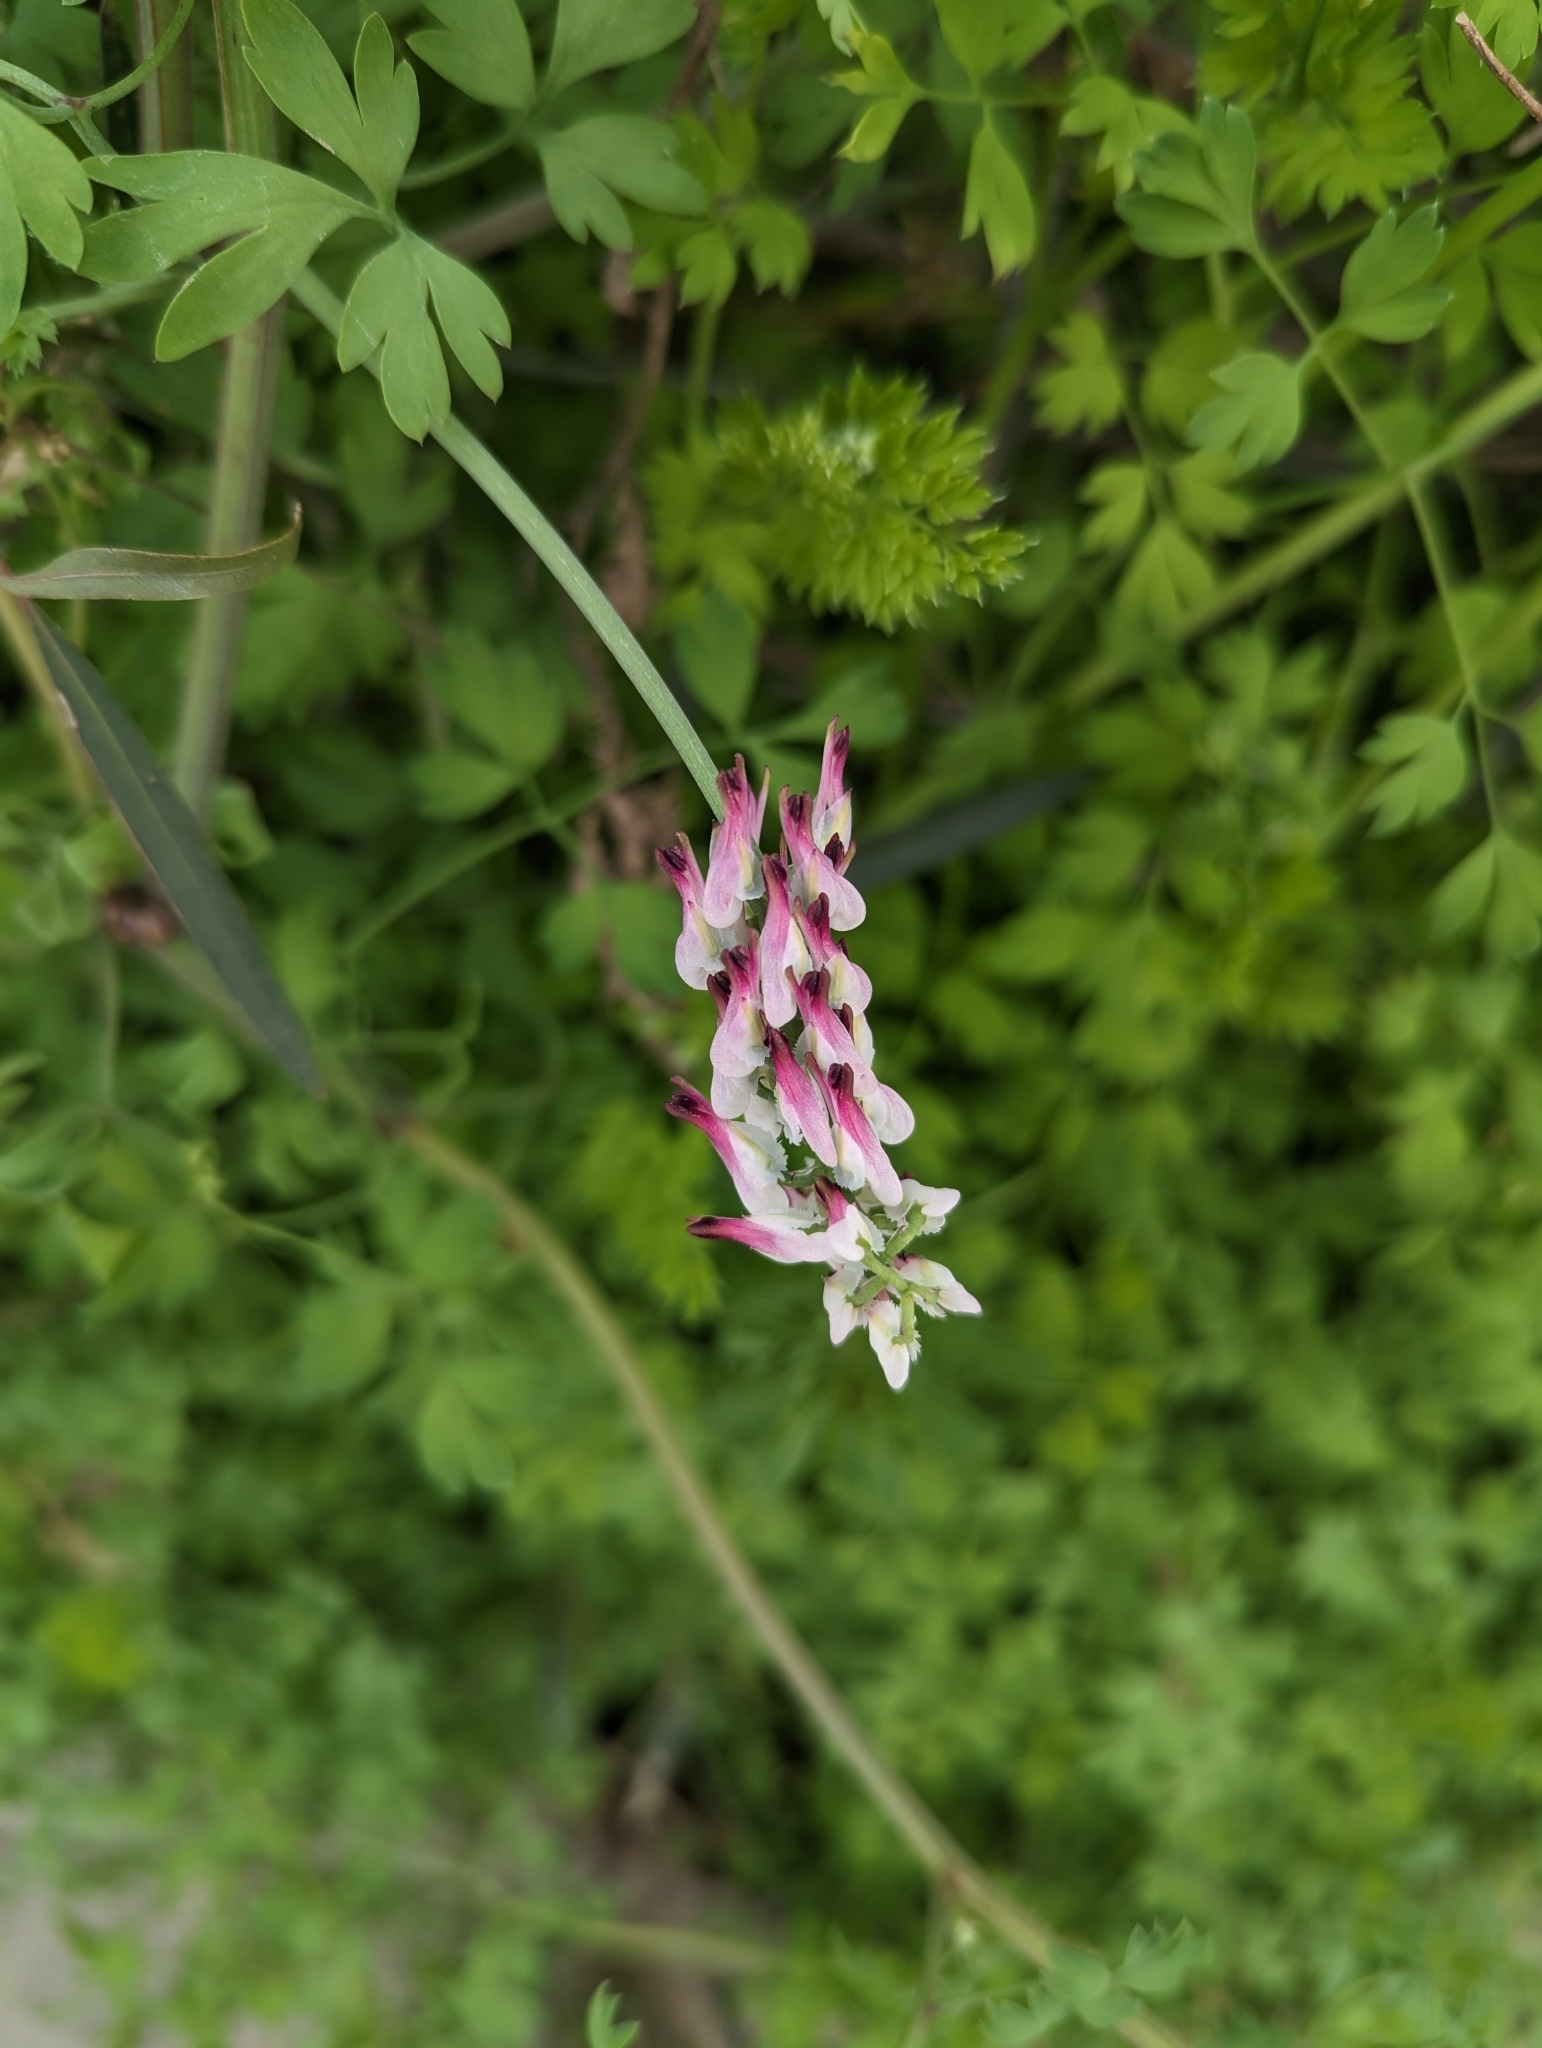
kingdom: Plantae
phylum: Tracheophyta
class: Magnoliopsida
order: Ranunculales
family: Papaveraceae
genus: Fumaria
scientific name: Fumaria capreolata
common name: White ramping-fumitory
